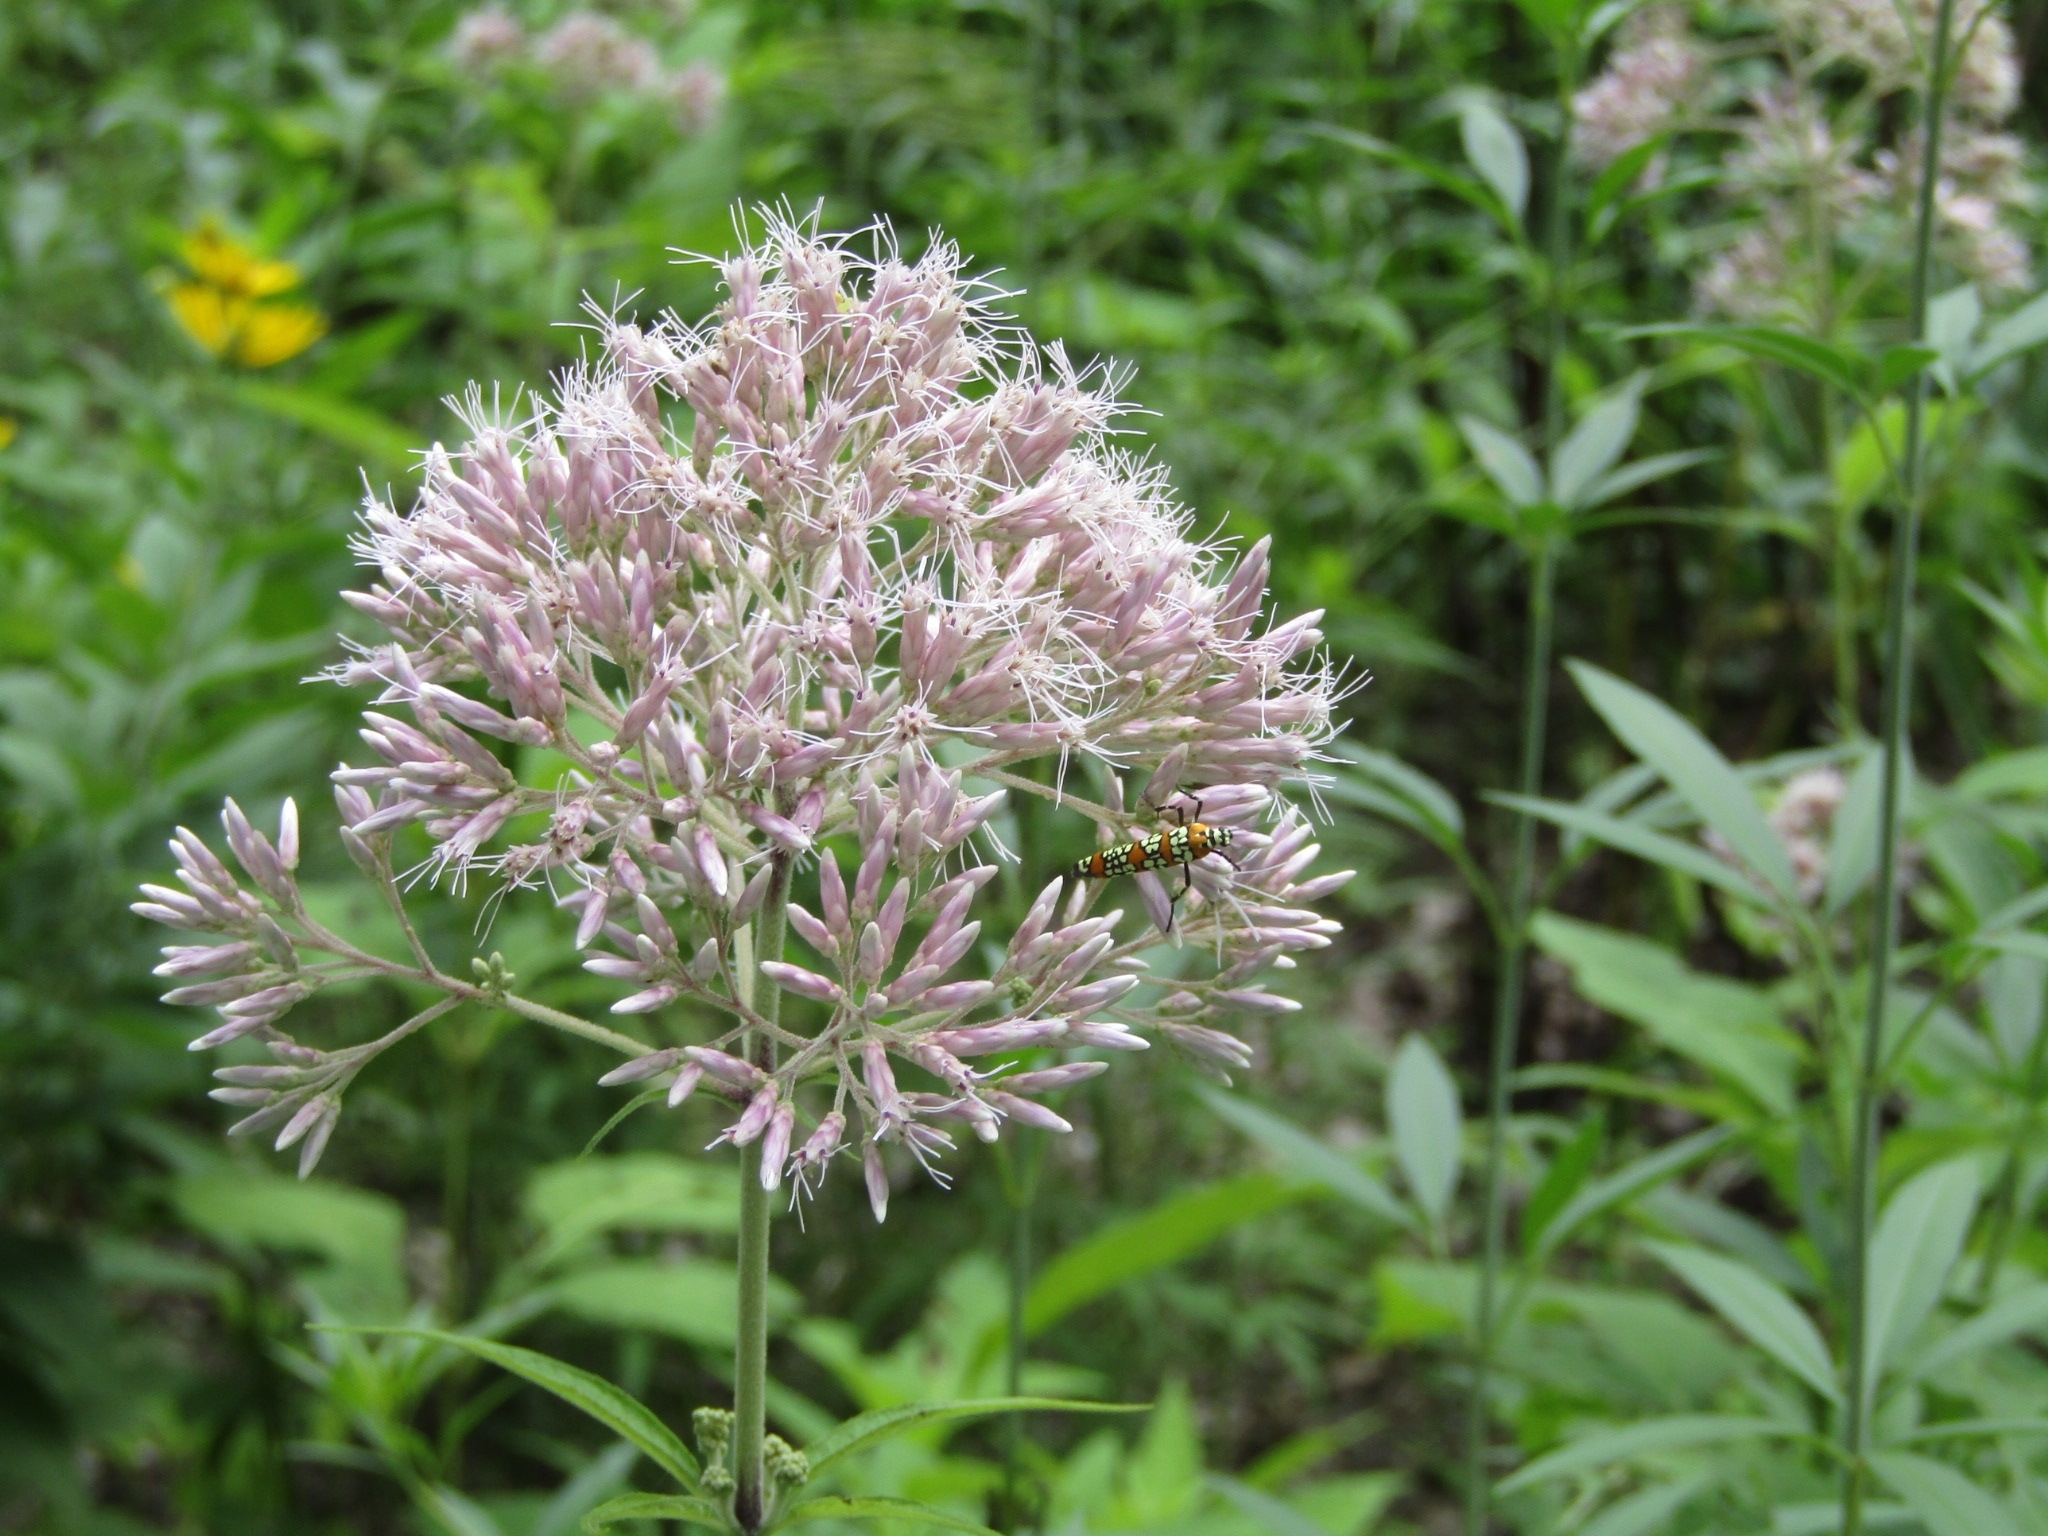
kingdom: Animalia
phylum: Arthropoda
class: Insecta
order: Lepidoptera
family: Attevidae
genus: Atteva
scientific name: Atteva punctella
